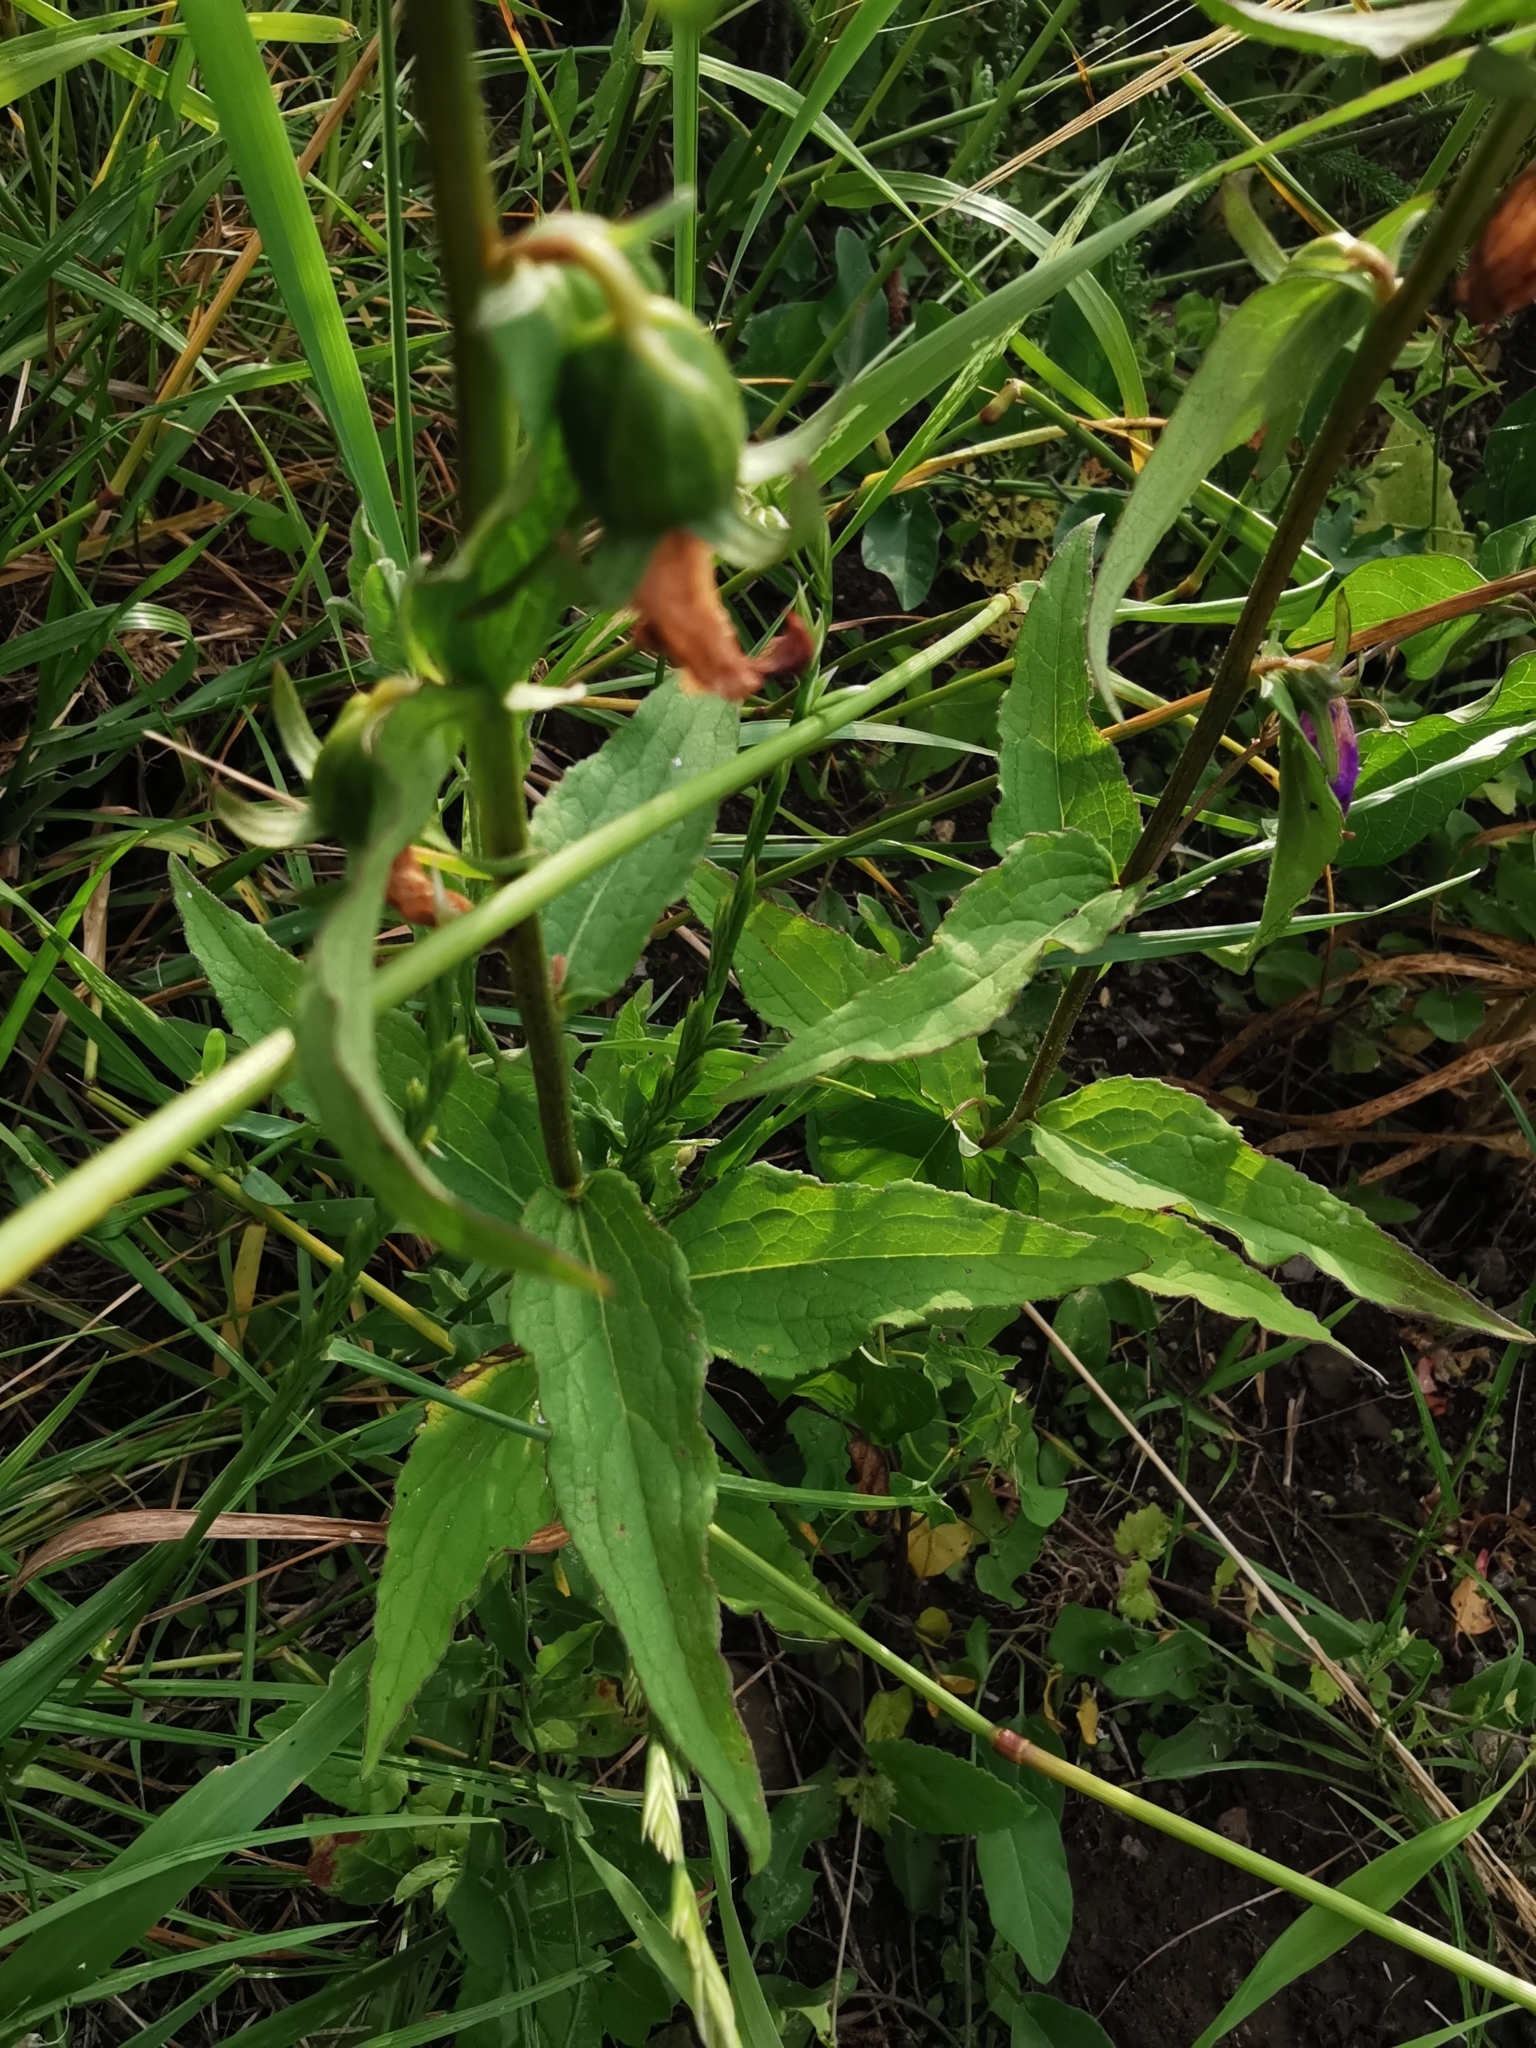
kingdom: Plantae
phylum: Tracheophyta
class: Magnoliopsida
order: Asterales
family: Campanulaceae
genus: Campanula
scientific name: Campanula rapunculoides
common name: Creeping bellflower
